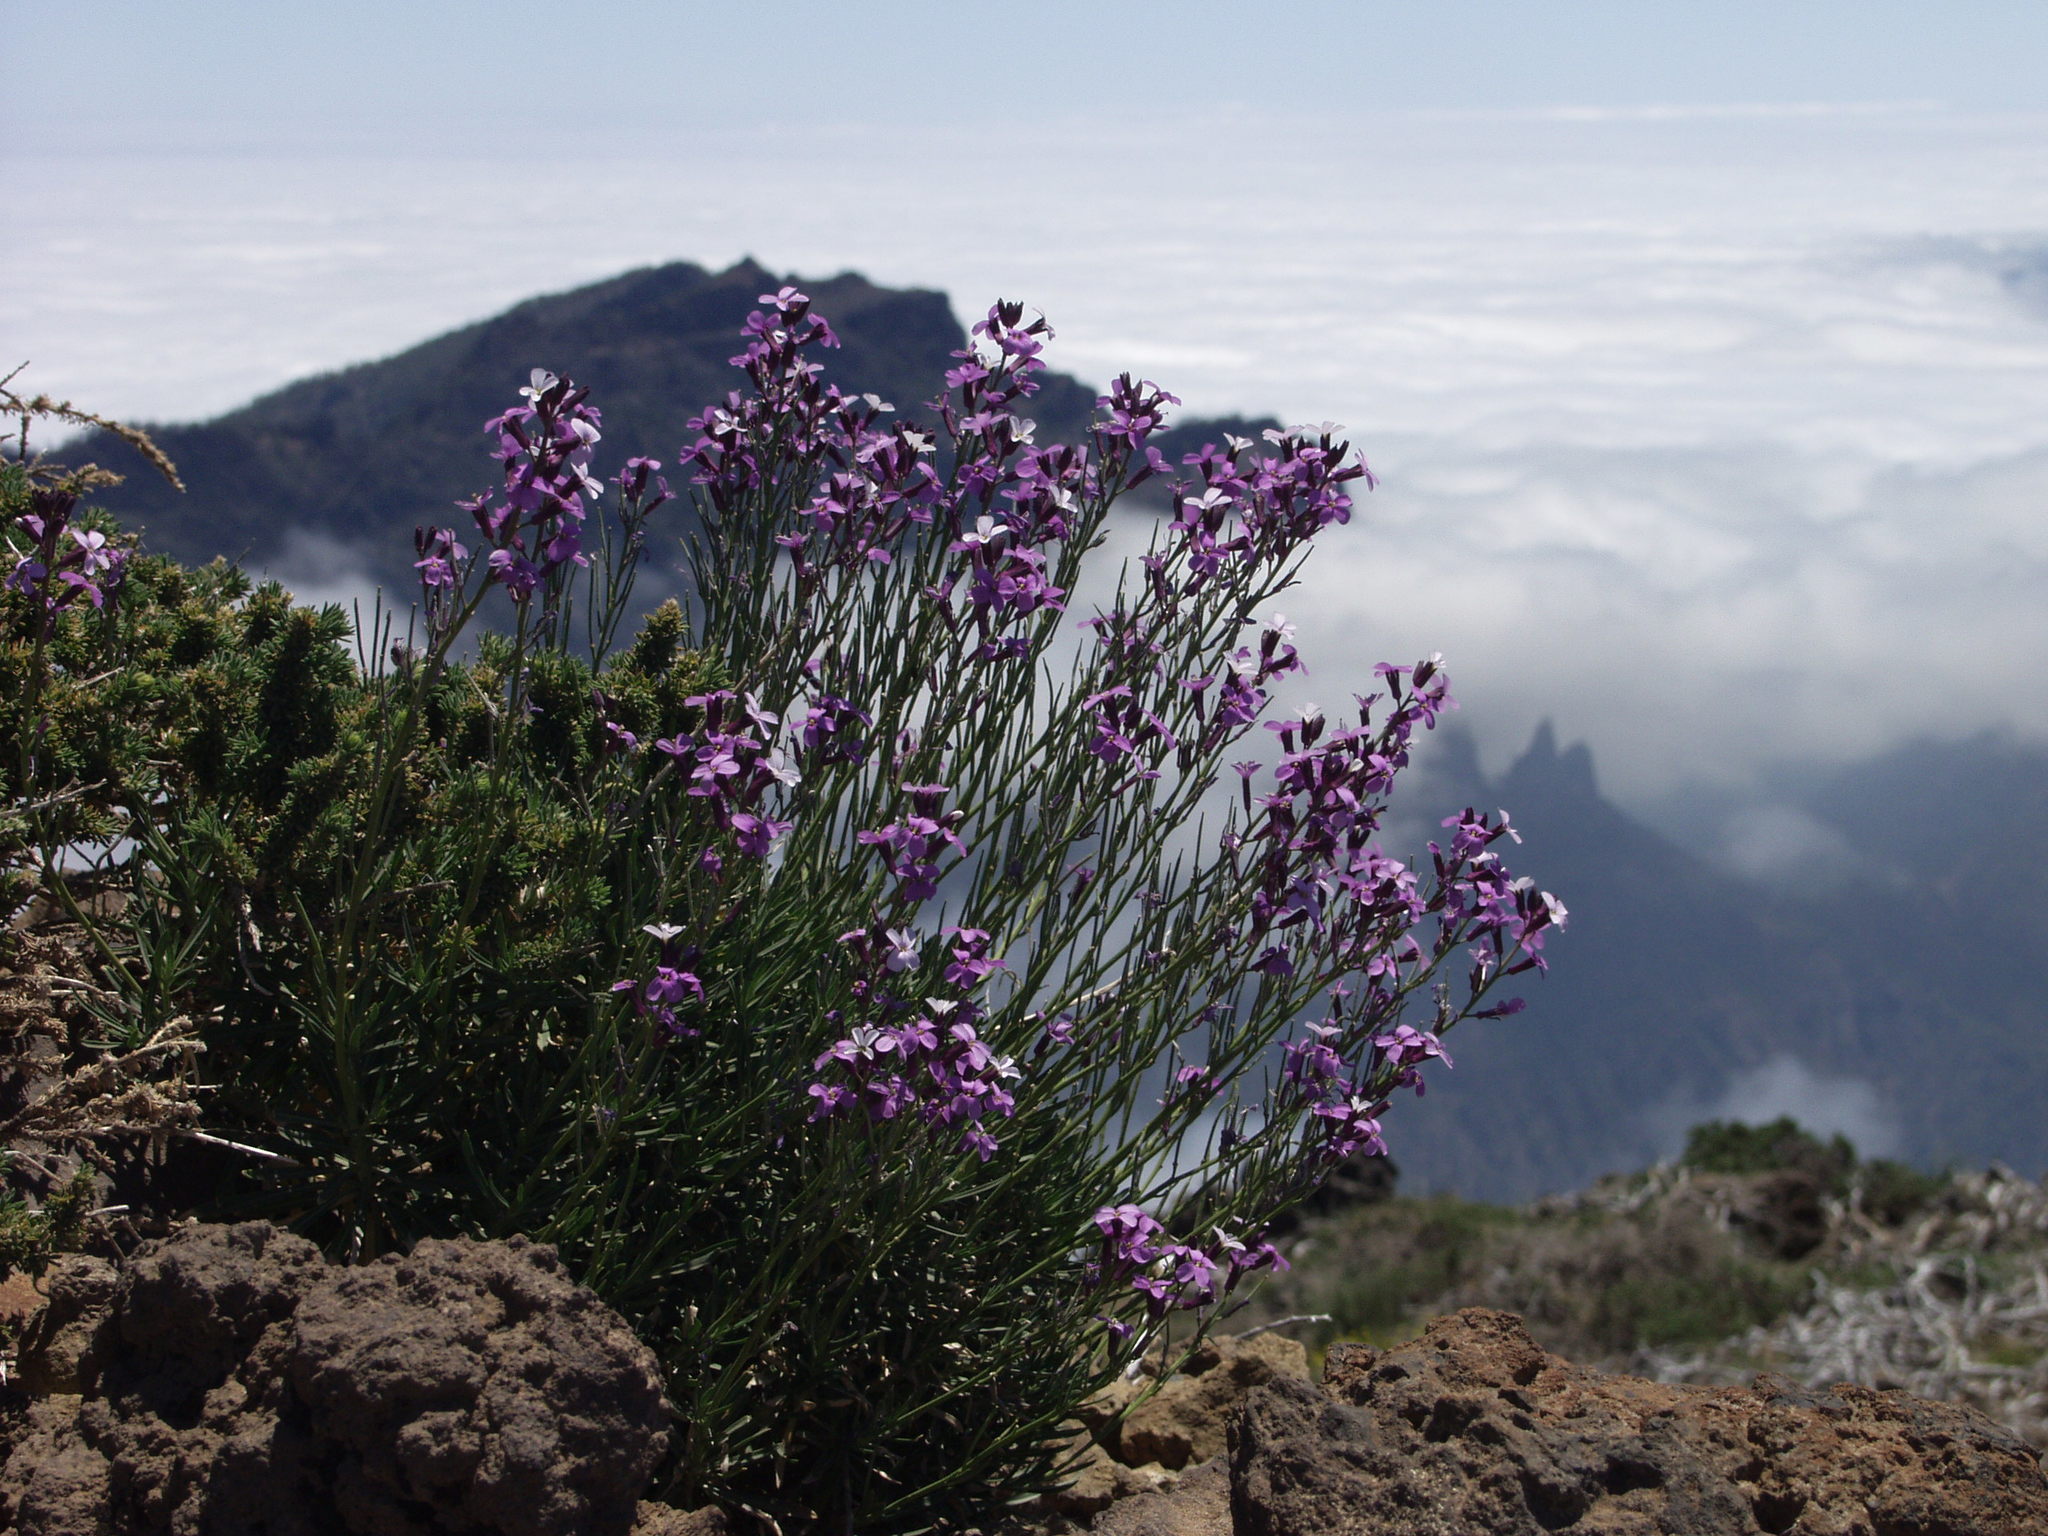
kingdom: Plantae
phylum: Tracheophyta
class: Magnoliopsida
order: Brassicales
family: Brassicaceae
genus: Erysimum
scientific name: Erysimum scoparium
